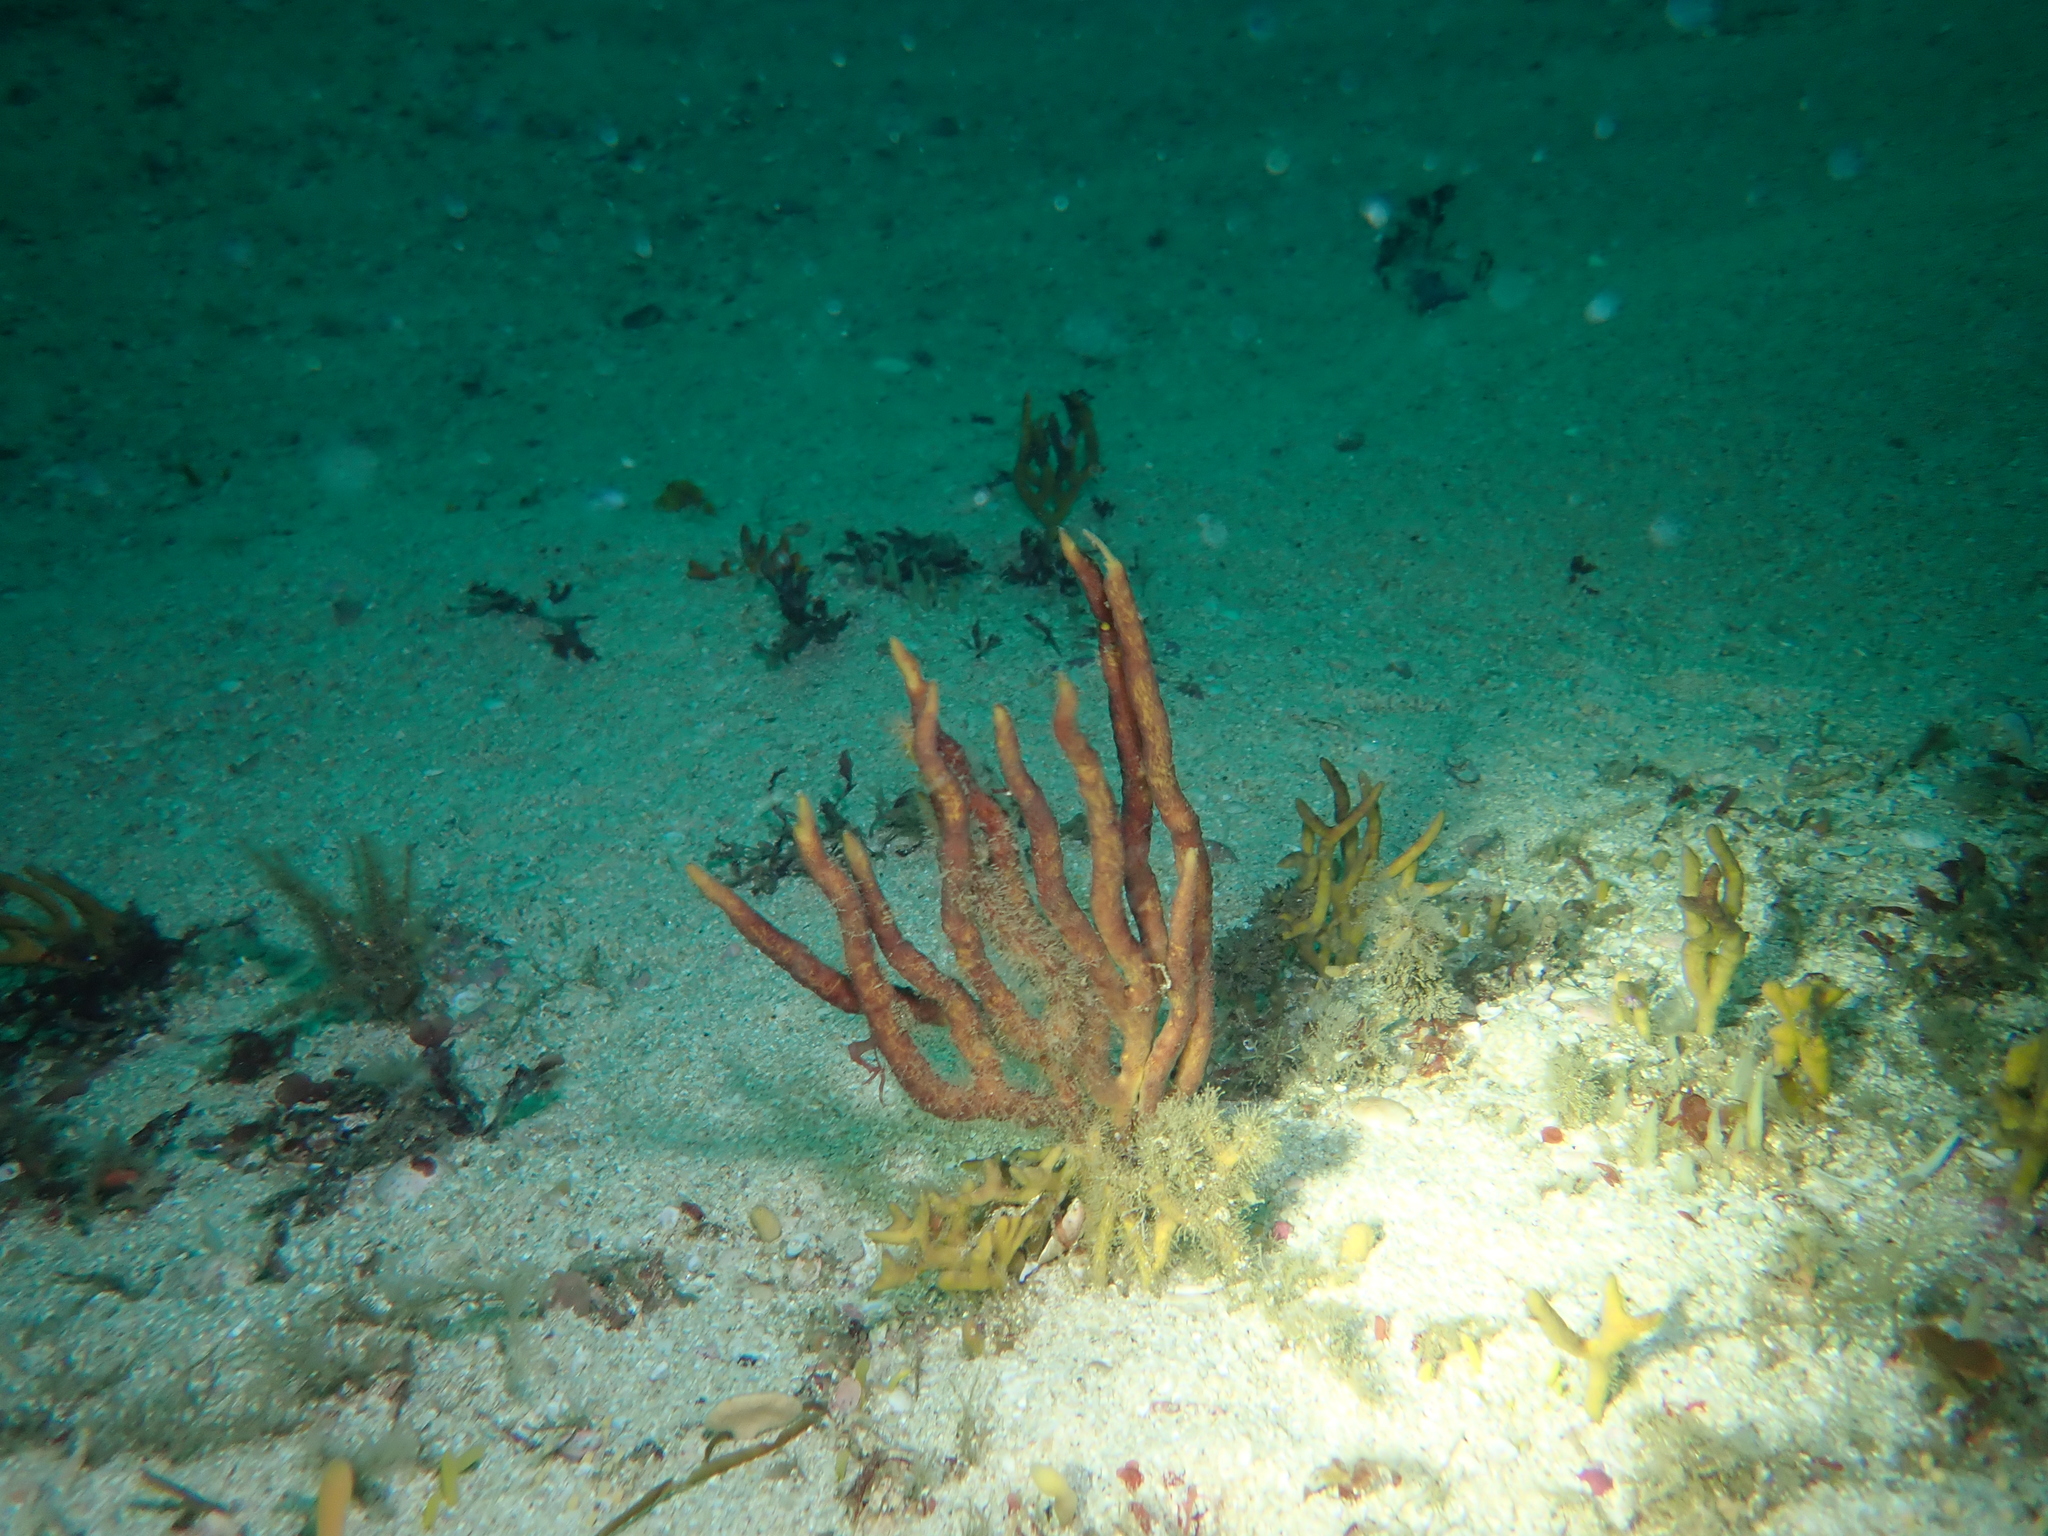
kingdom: Animalia
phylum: Porifera
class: Demospongiae
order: Tethyida
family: Hemiasterellidae
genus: Adreus
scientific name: Adreus fascicularis
